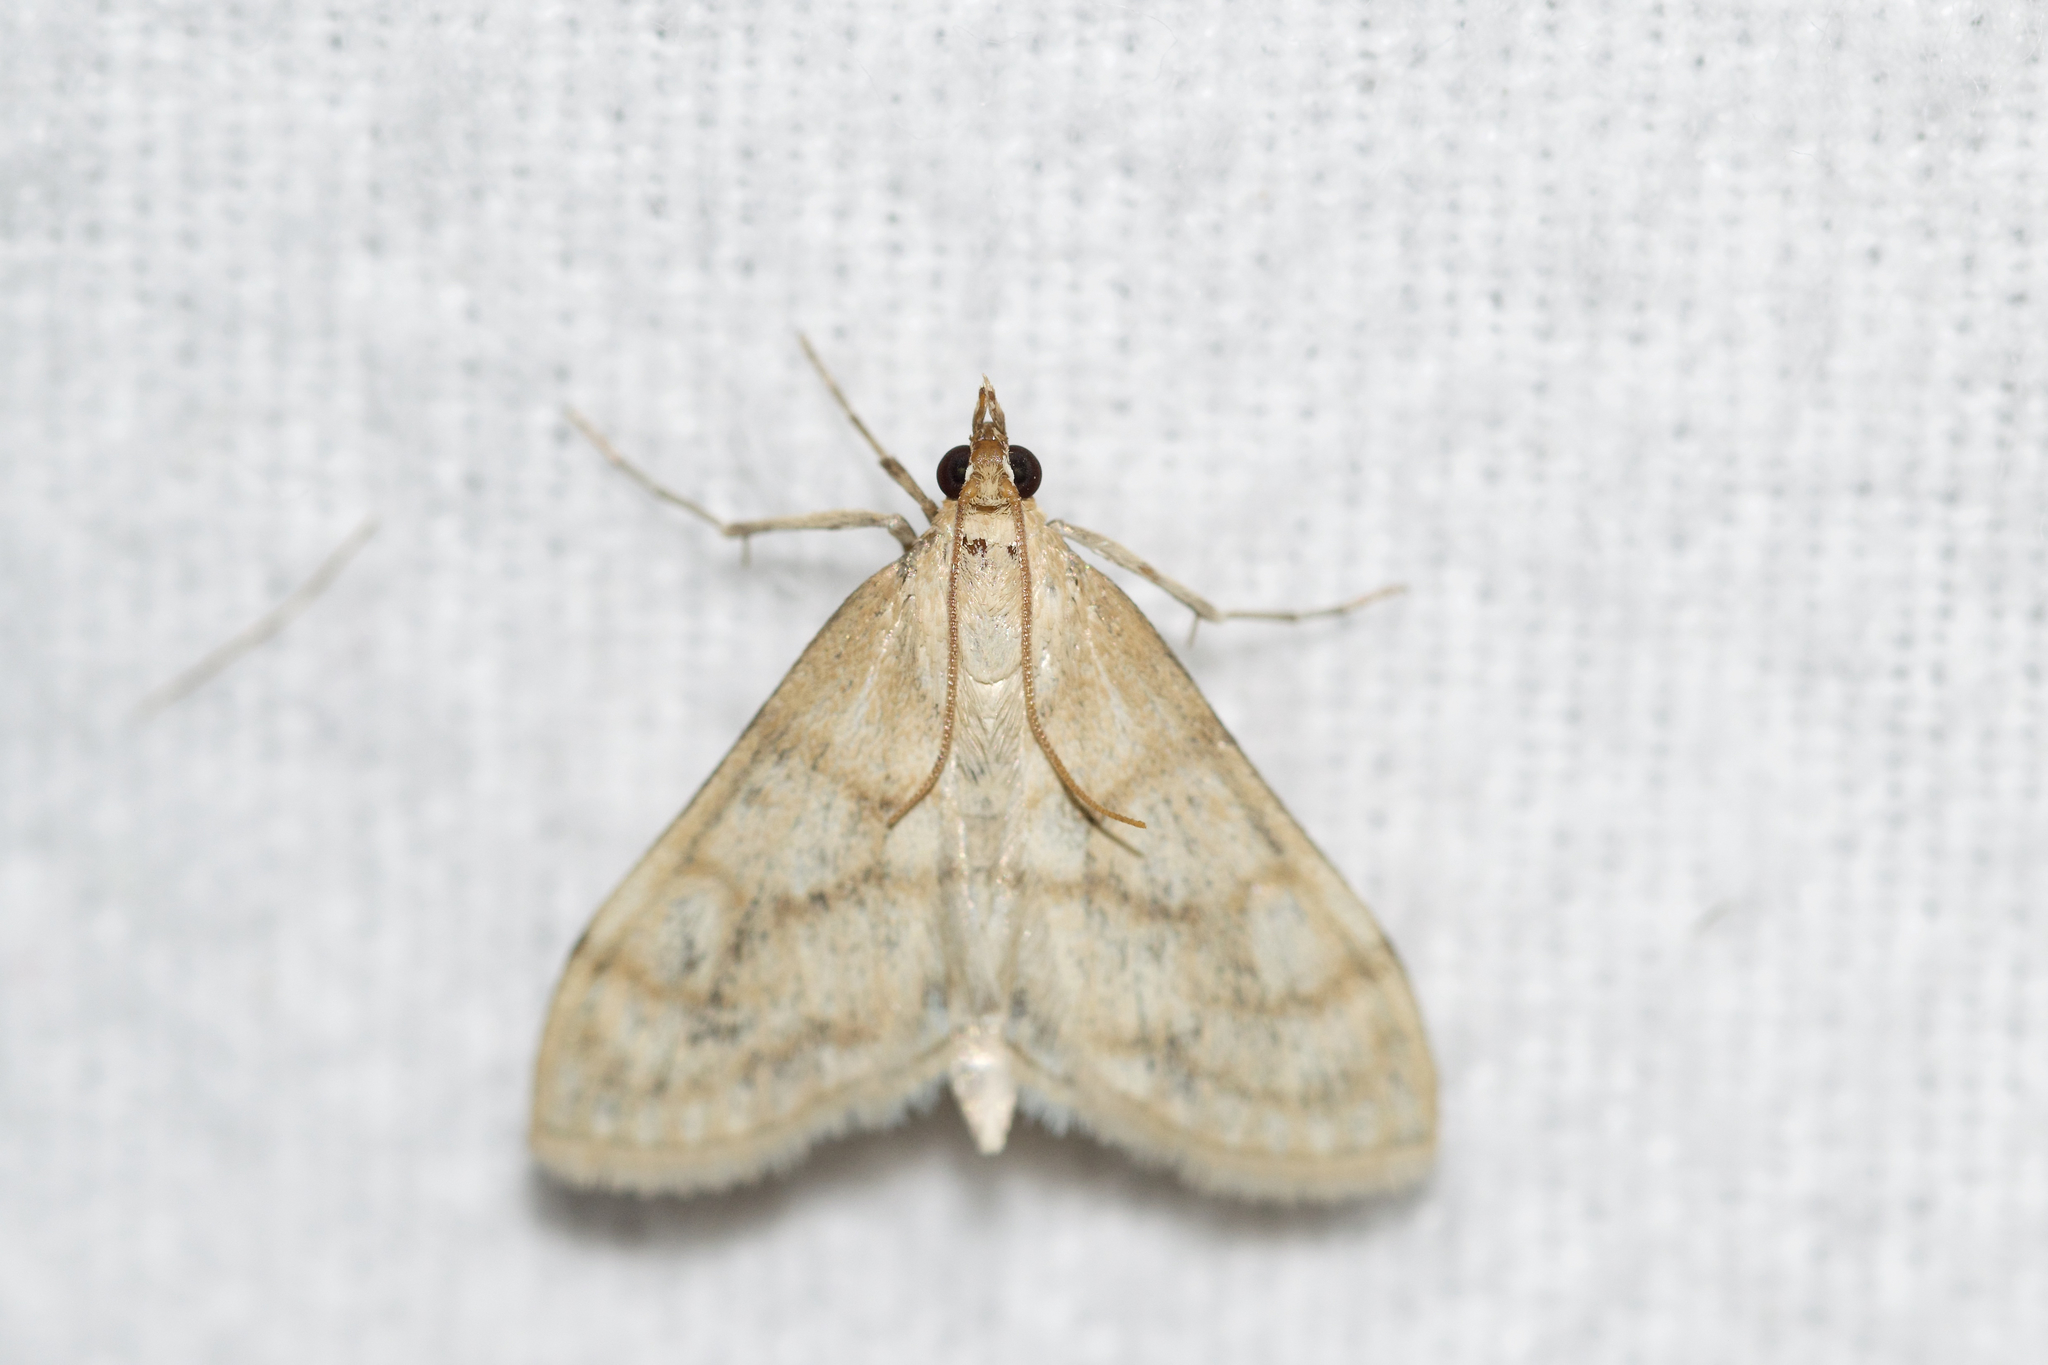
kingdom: Animalia
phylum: Arthropoda
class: Insecta
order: Lepidoptera
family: Crambidae
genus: Paracorsia
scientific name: Paracorsia repandalis
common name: Mullein moth
